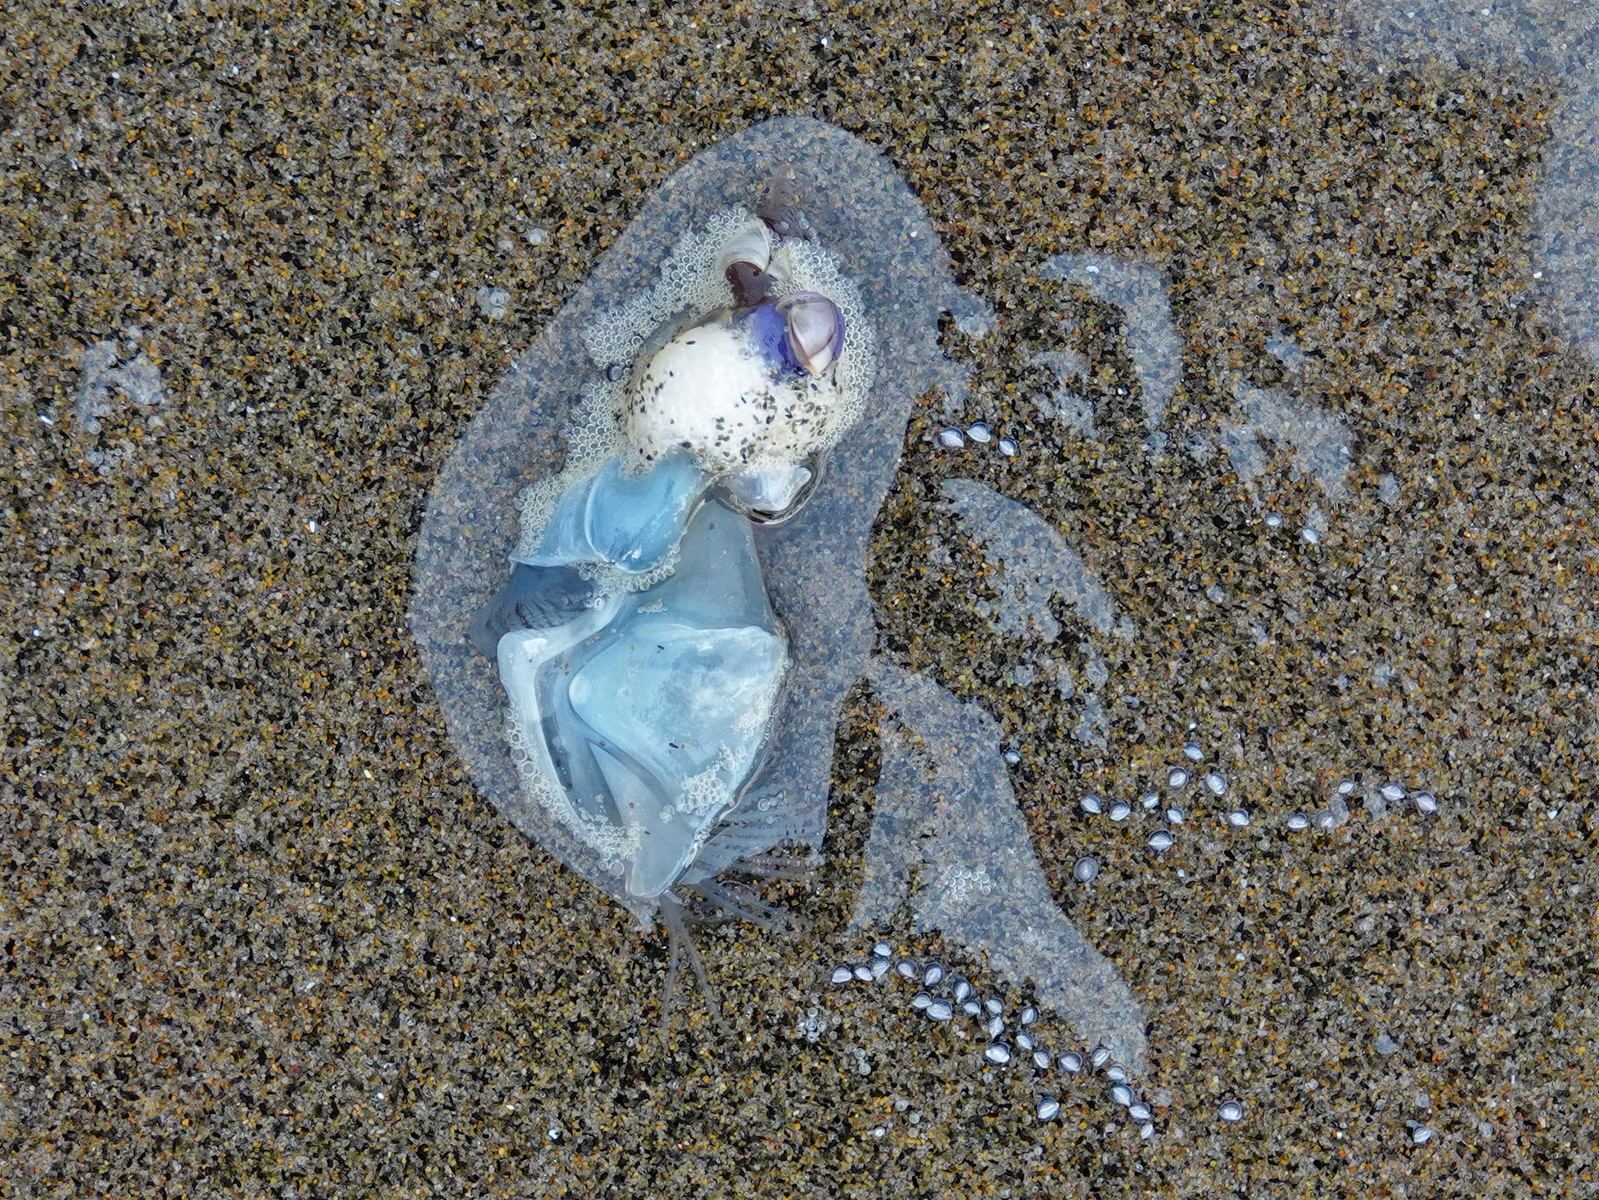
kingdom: Animalia
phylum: Arthropoda
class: Maxillopoda
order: Pedunculata
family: Lepadidae
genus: Dosima
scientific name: Dosima fascicularis
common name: Buoy barnacle
